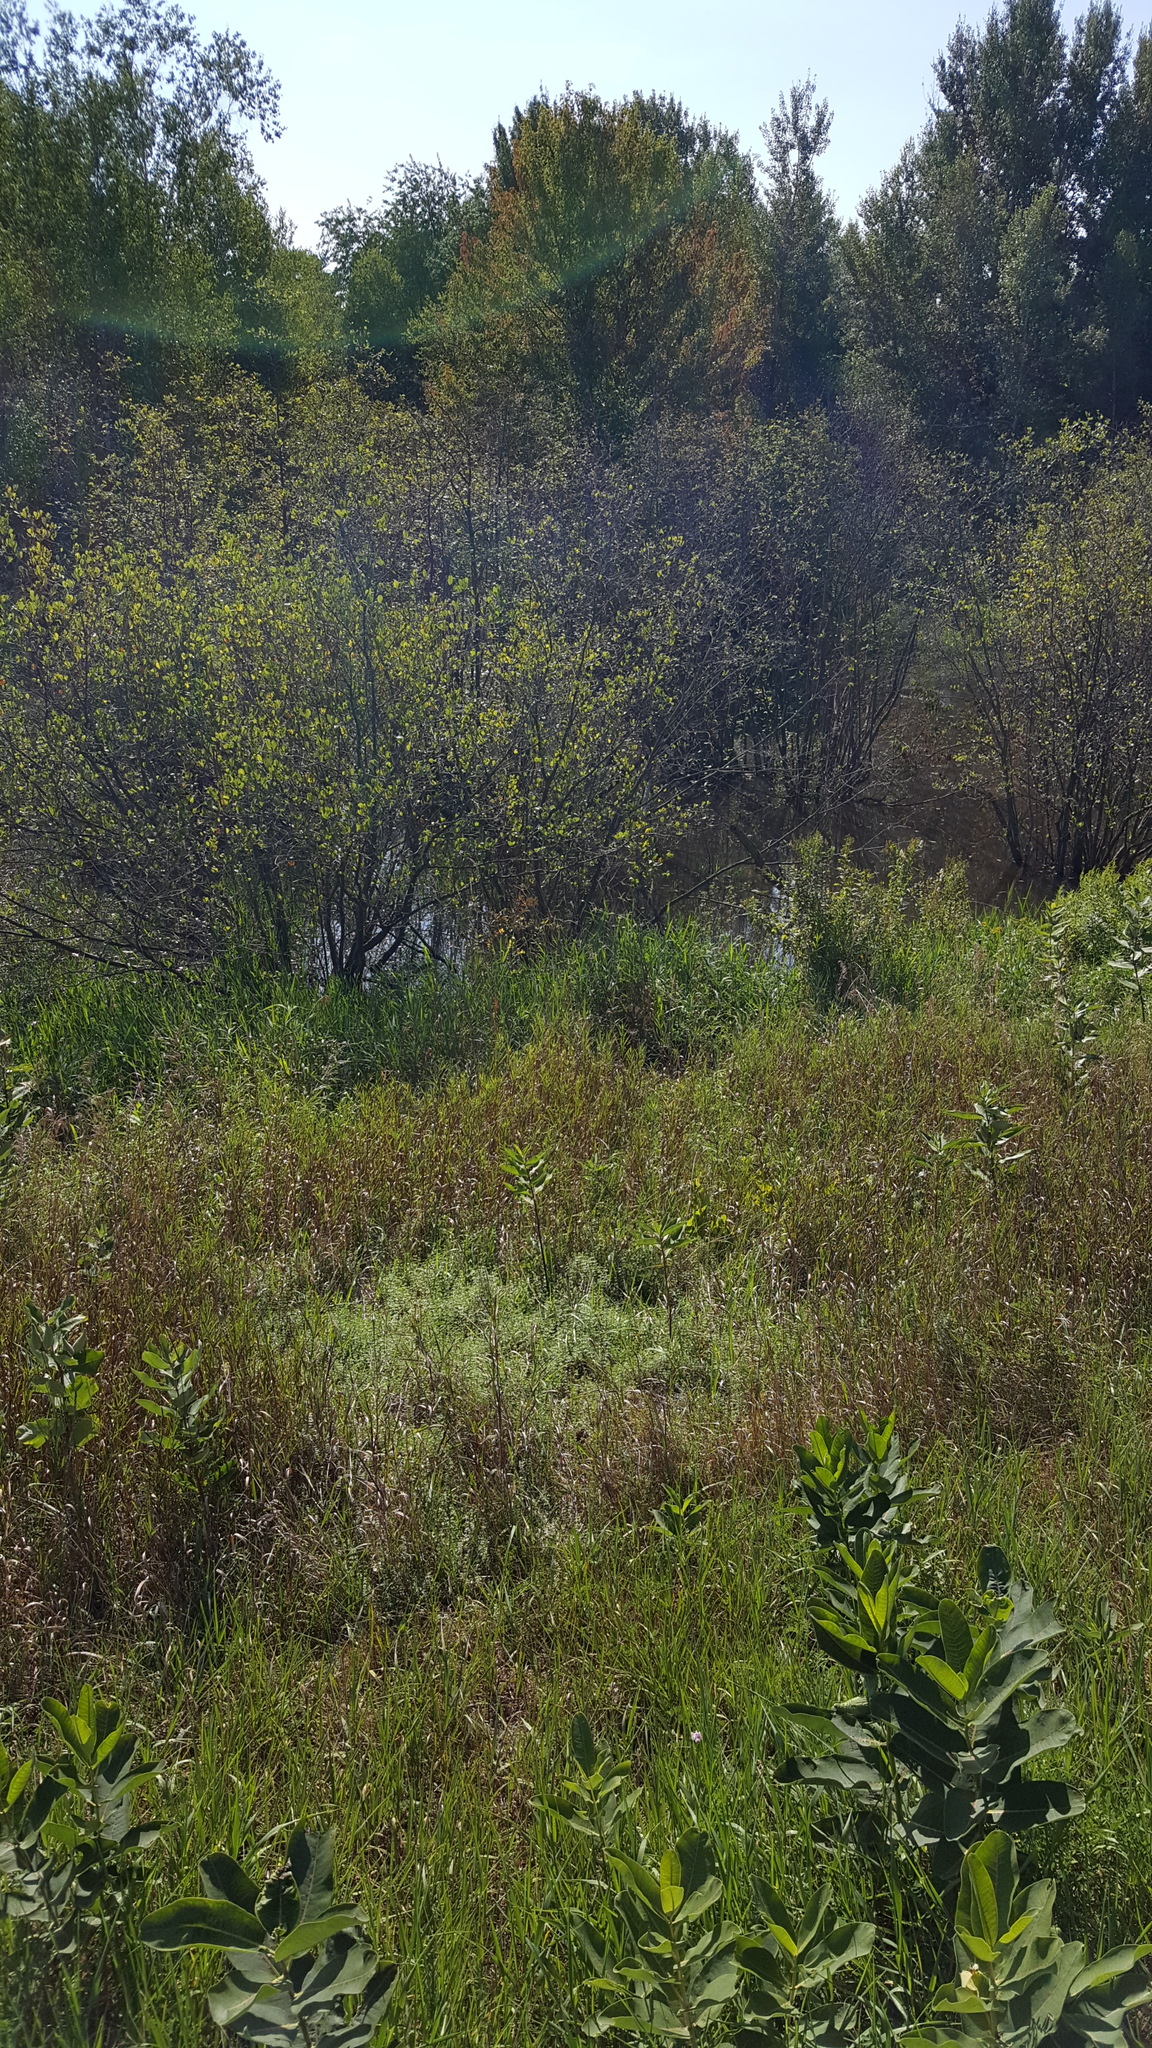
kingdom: Plantae
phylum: Tracheophyta
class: Magnoliopsida
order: Gentianales
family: Apocynaceae
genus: Asclepias
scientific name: Asclepias syriaca
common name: Common milkweed
